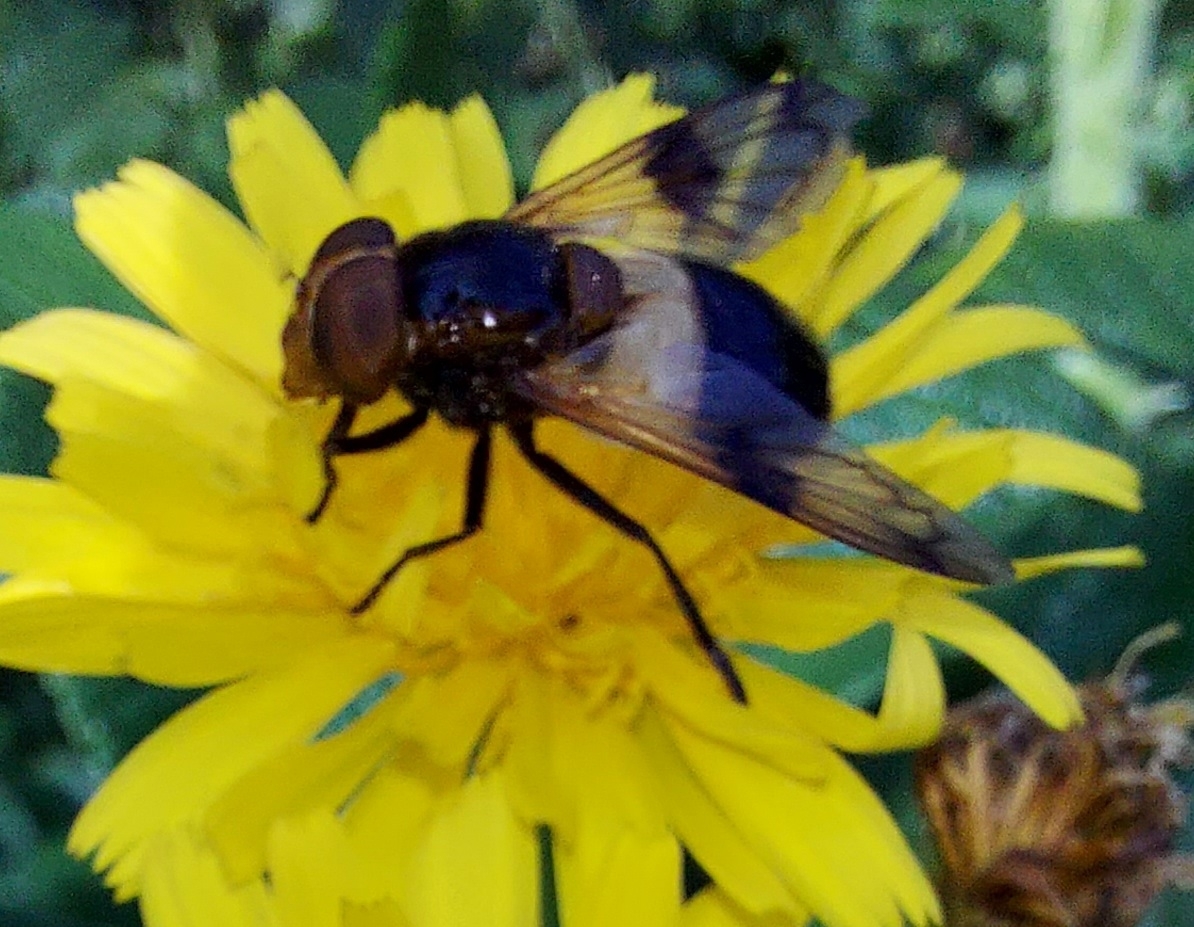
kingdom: Animalia
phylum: Arthropoda
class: Insecta
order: Diptera
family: Syrphidae
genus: Volucella
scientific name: Volucella pellucens
